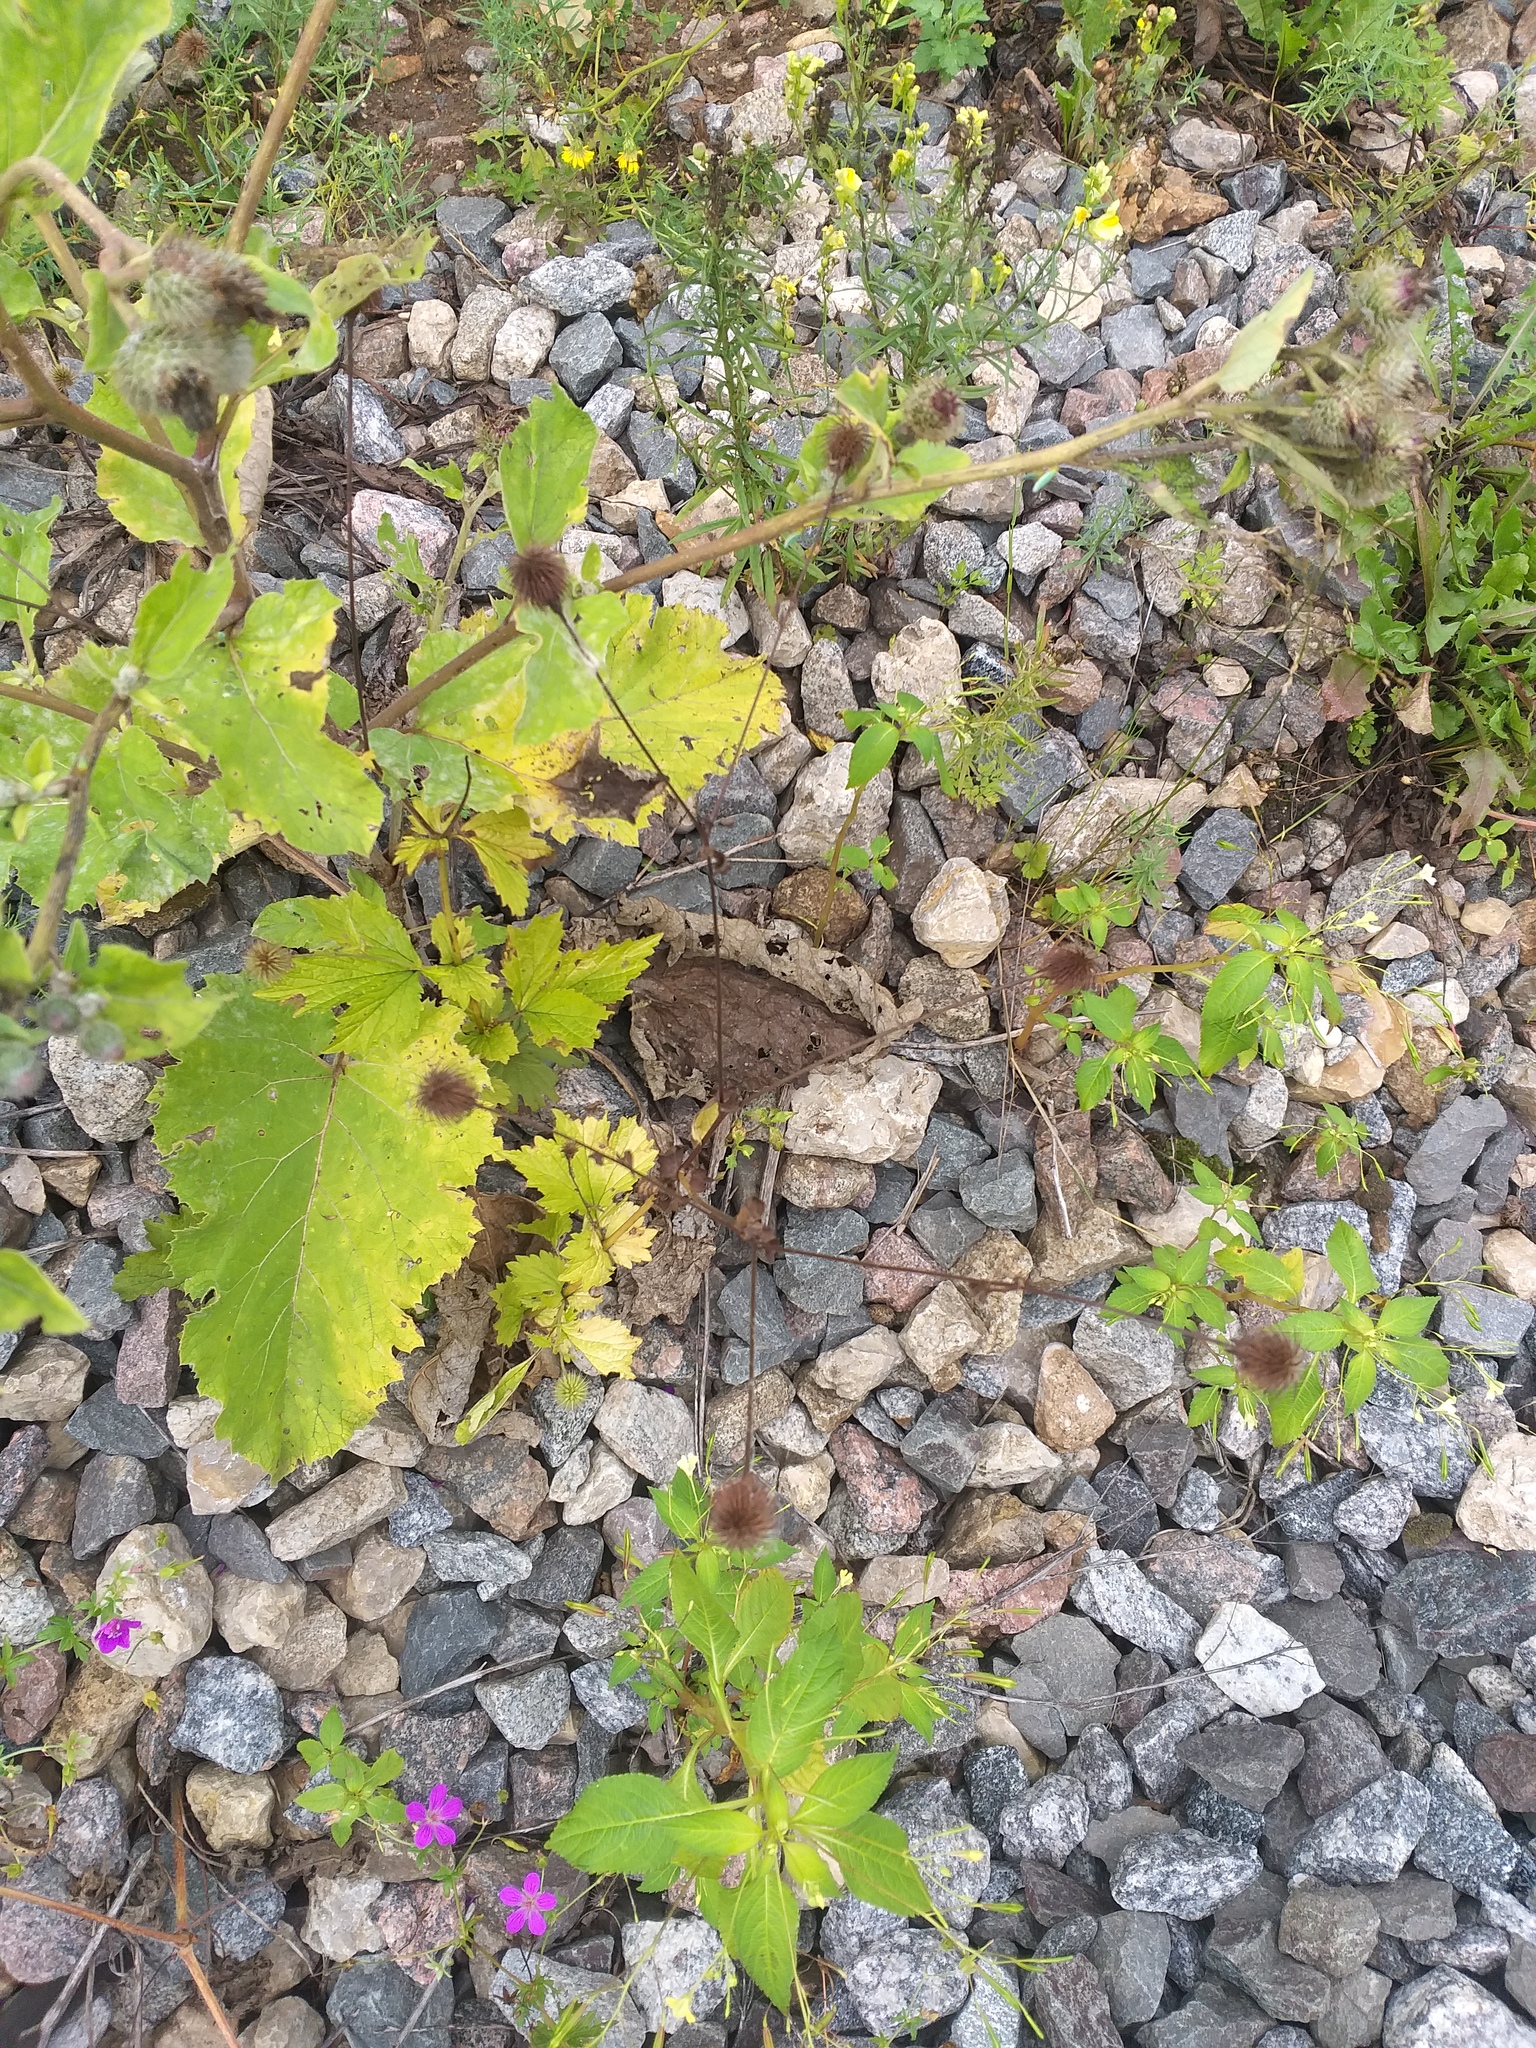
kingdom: Plantae
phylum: Tracheophyta
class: Magnoliopsida
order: Rosales
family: Rosaceae
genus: Geum
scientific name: Geum urbanum
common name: Wood avens
